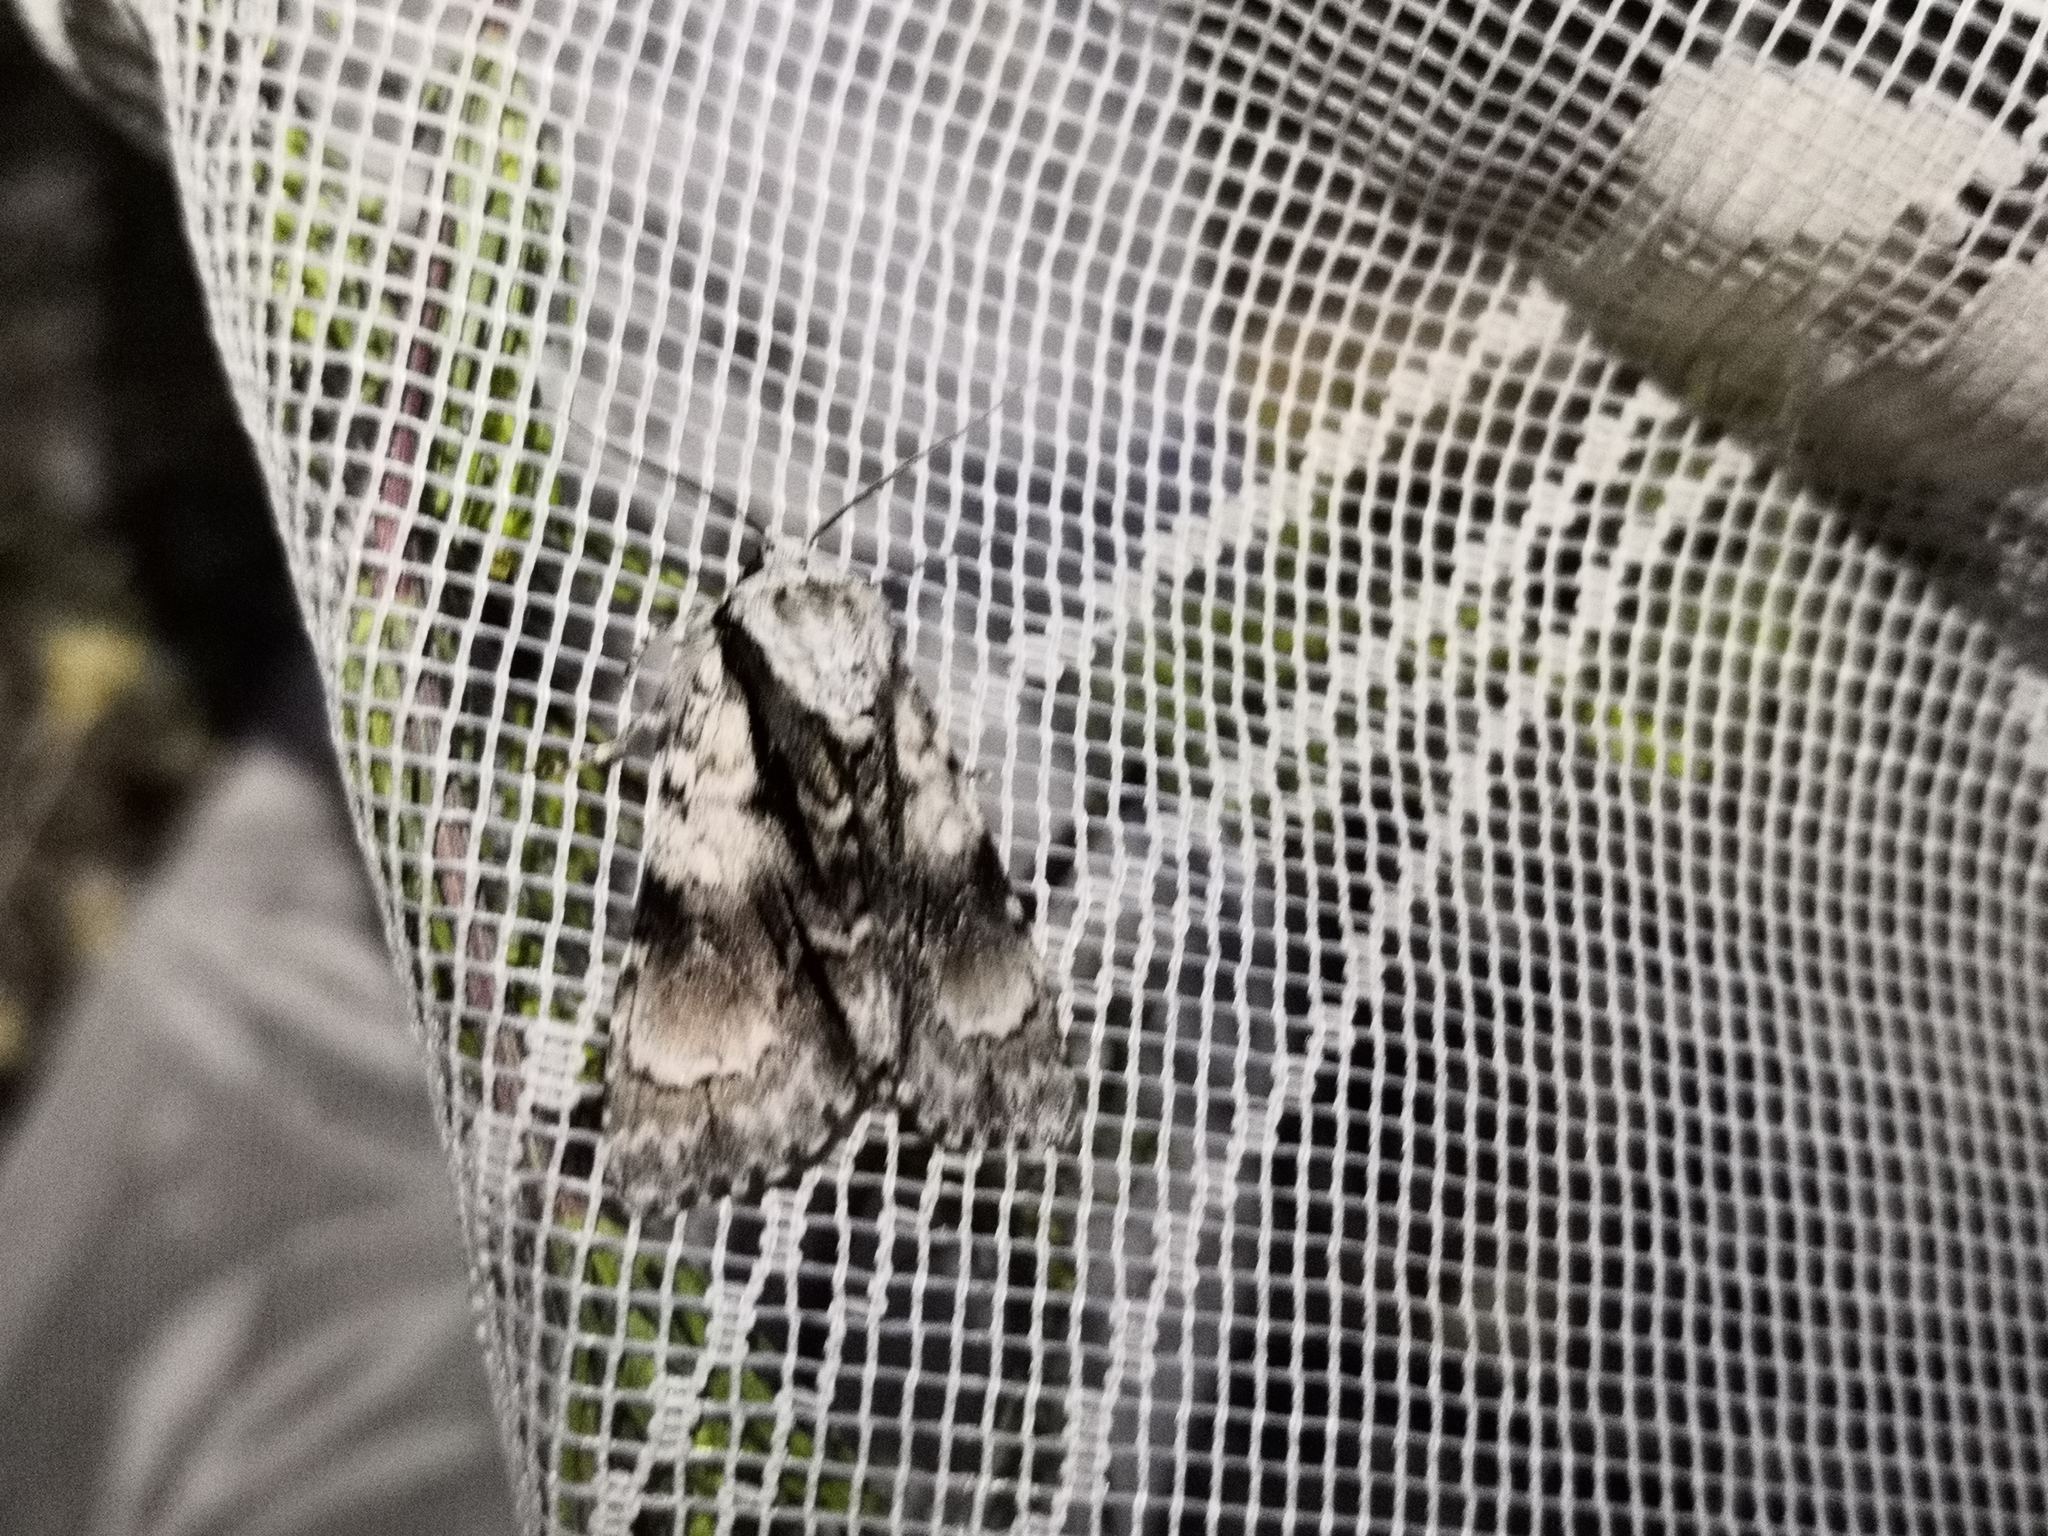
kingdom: Animalia
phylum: Arthropoda
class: Insecta
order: Lepidoptera
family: Noctuidae
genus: Acronicta
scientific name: Acronicta alni
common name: Alder moth
